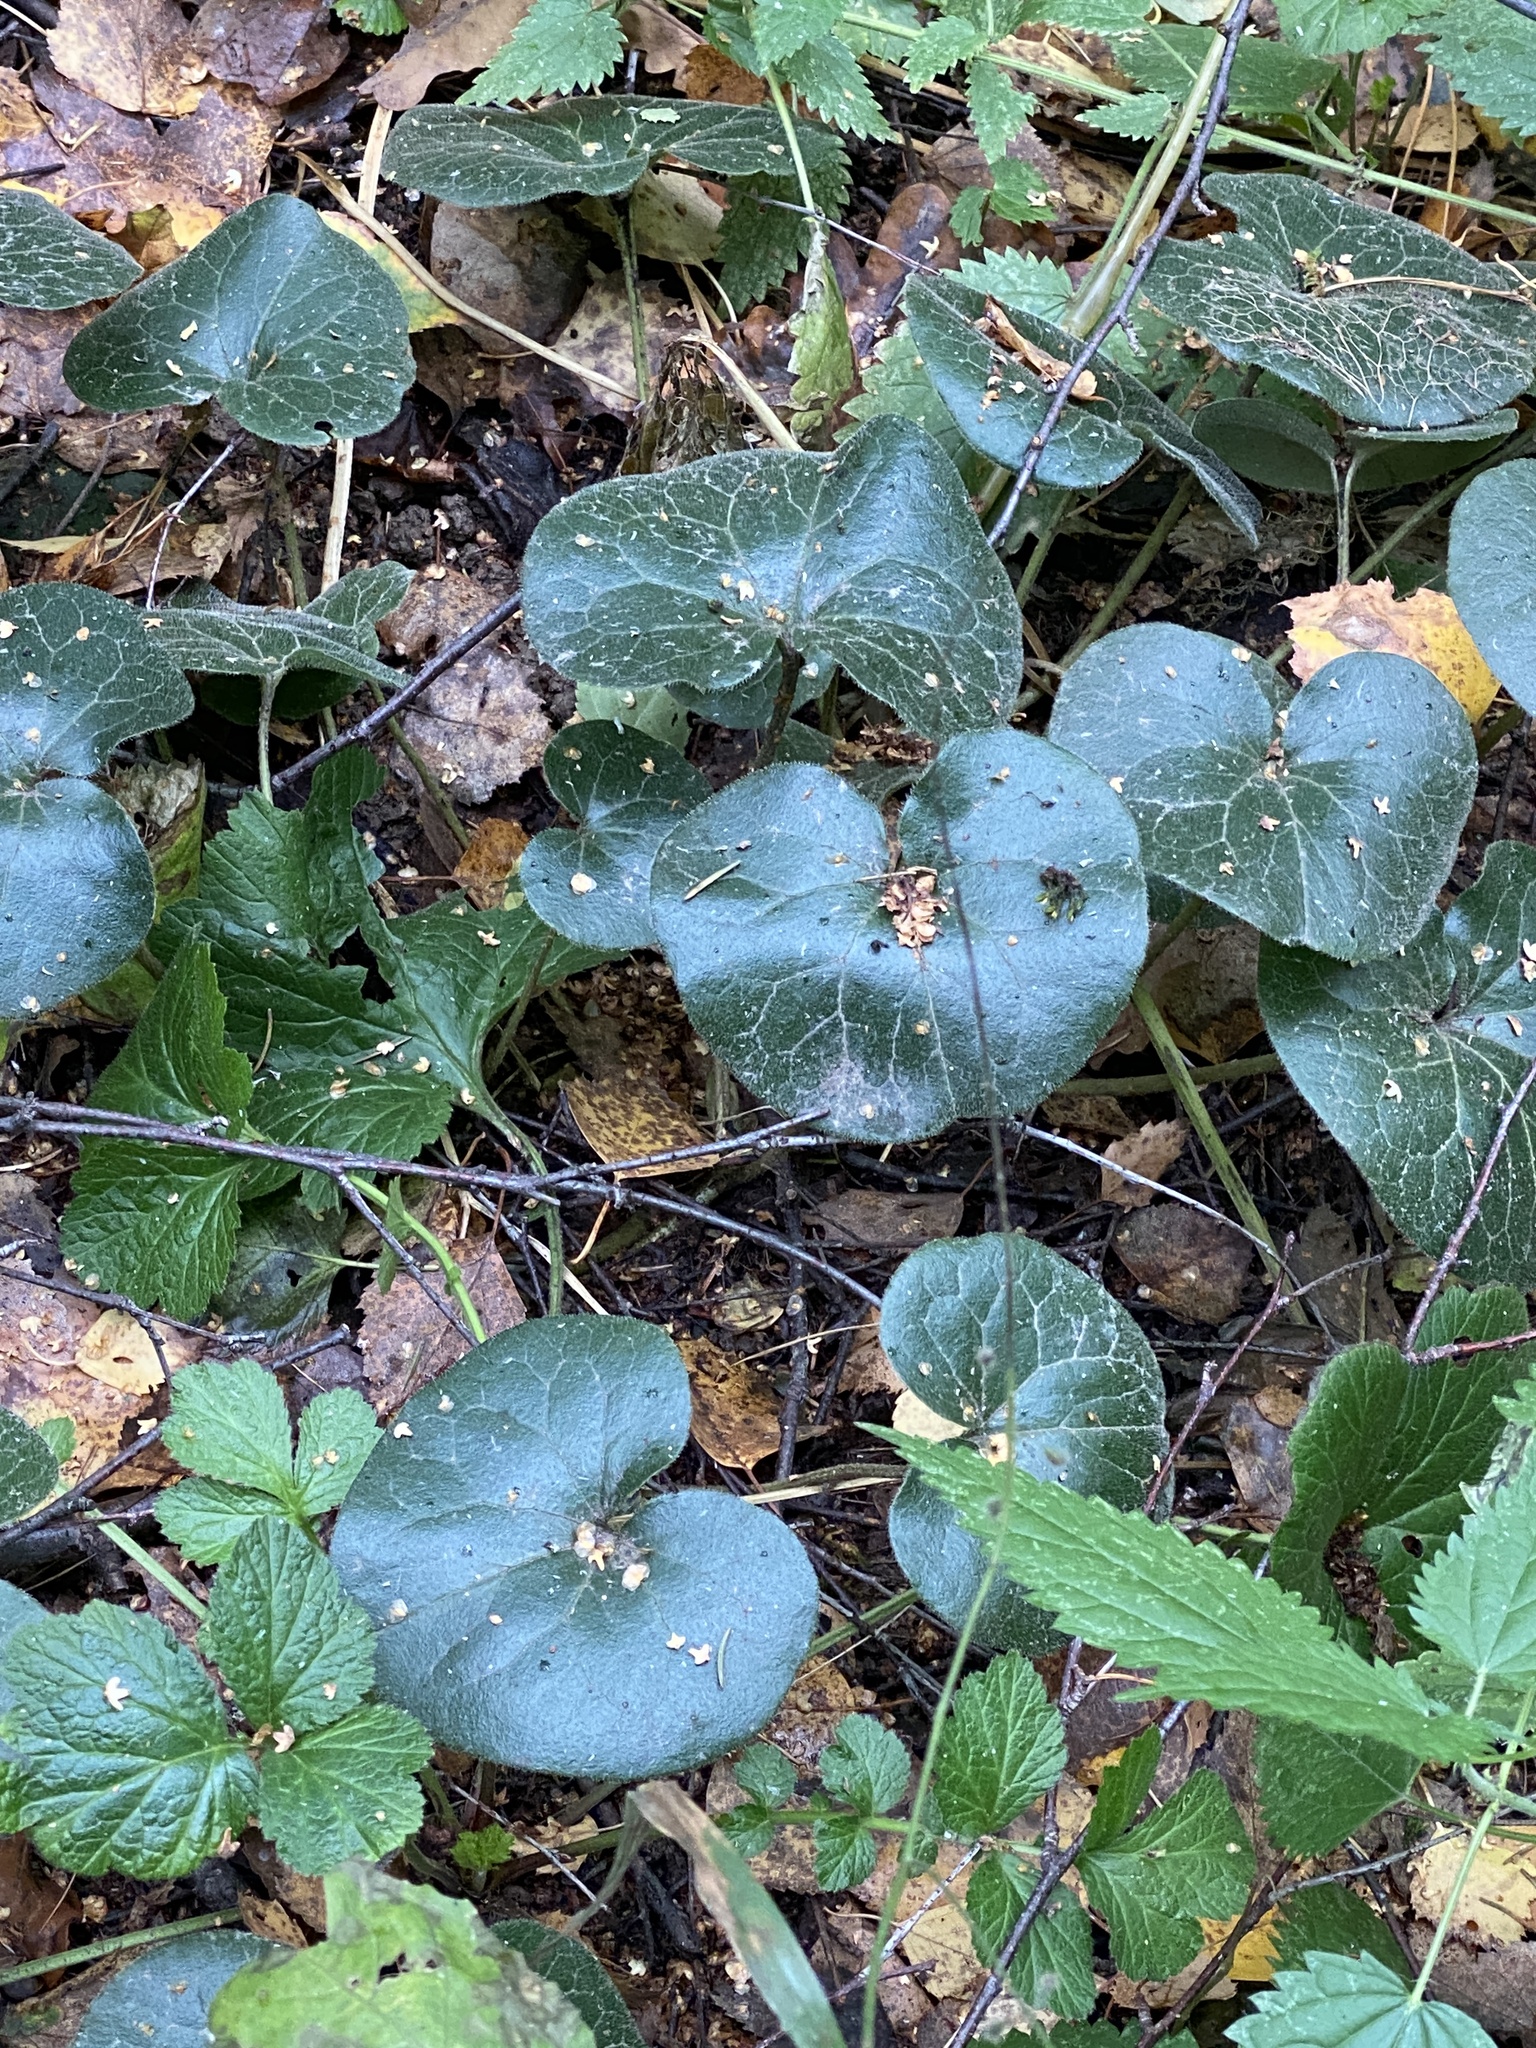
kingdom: Plantae
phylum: Tracheophyta
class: Magnoliopsida
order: Piperales
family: Aristolochiaceae
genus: Asarum
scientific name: Asarum europaeum
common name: Asarabacca
